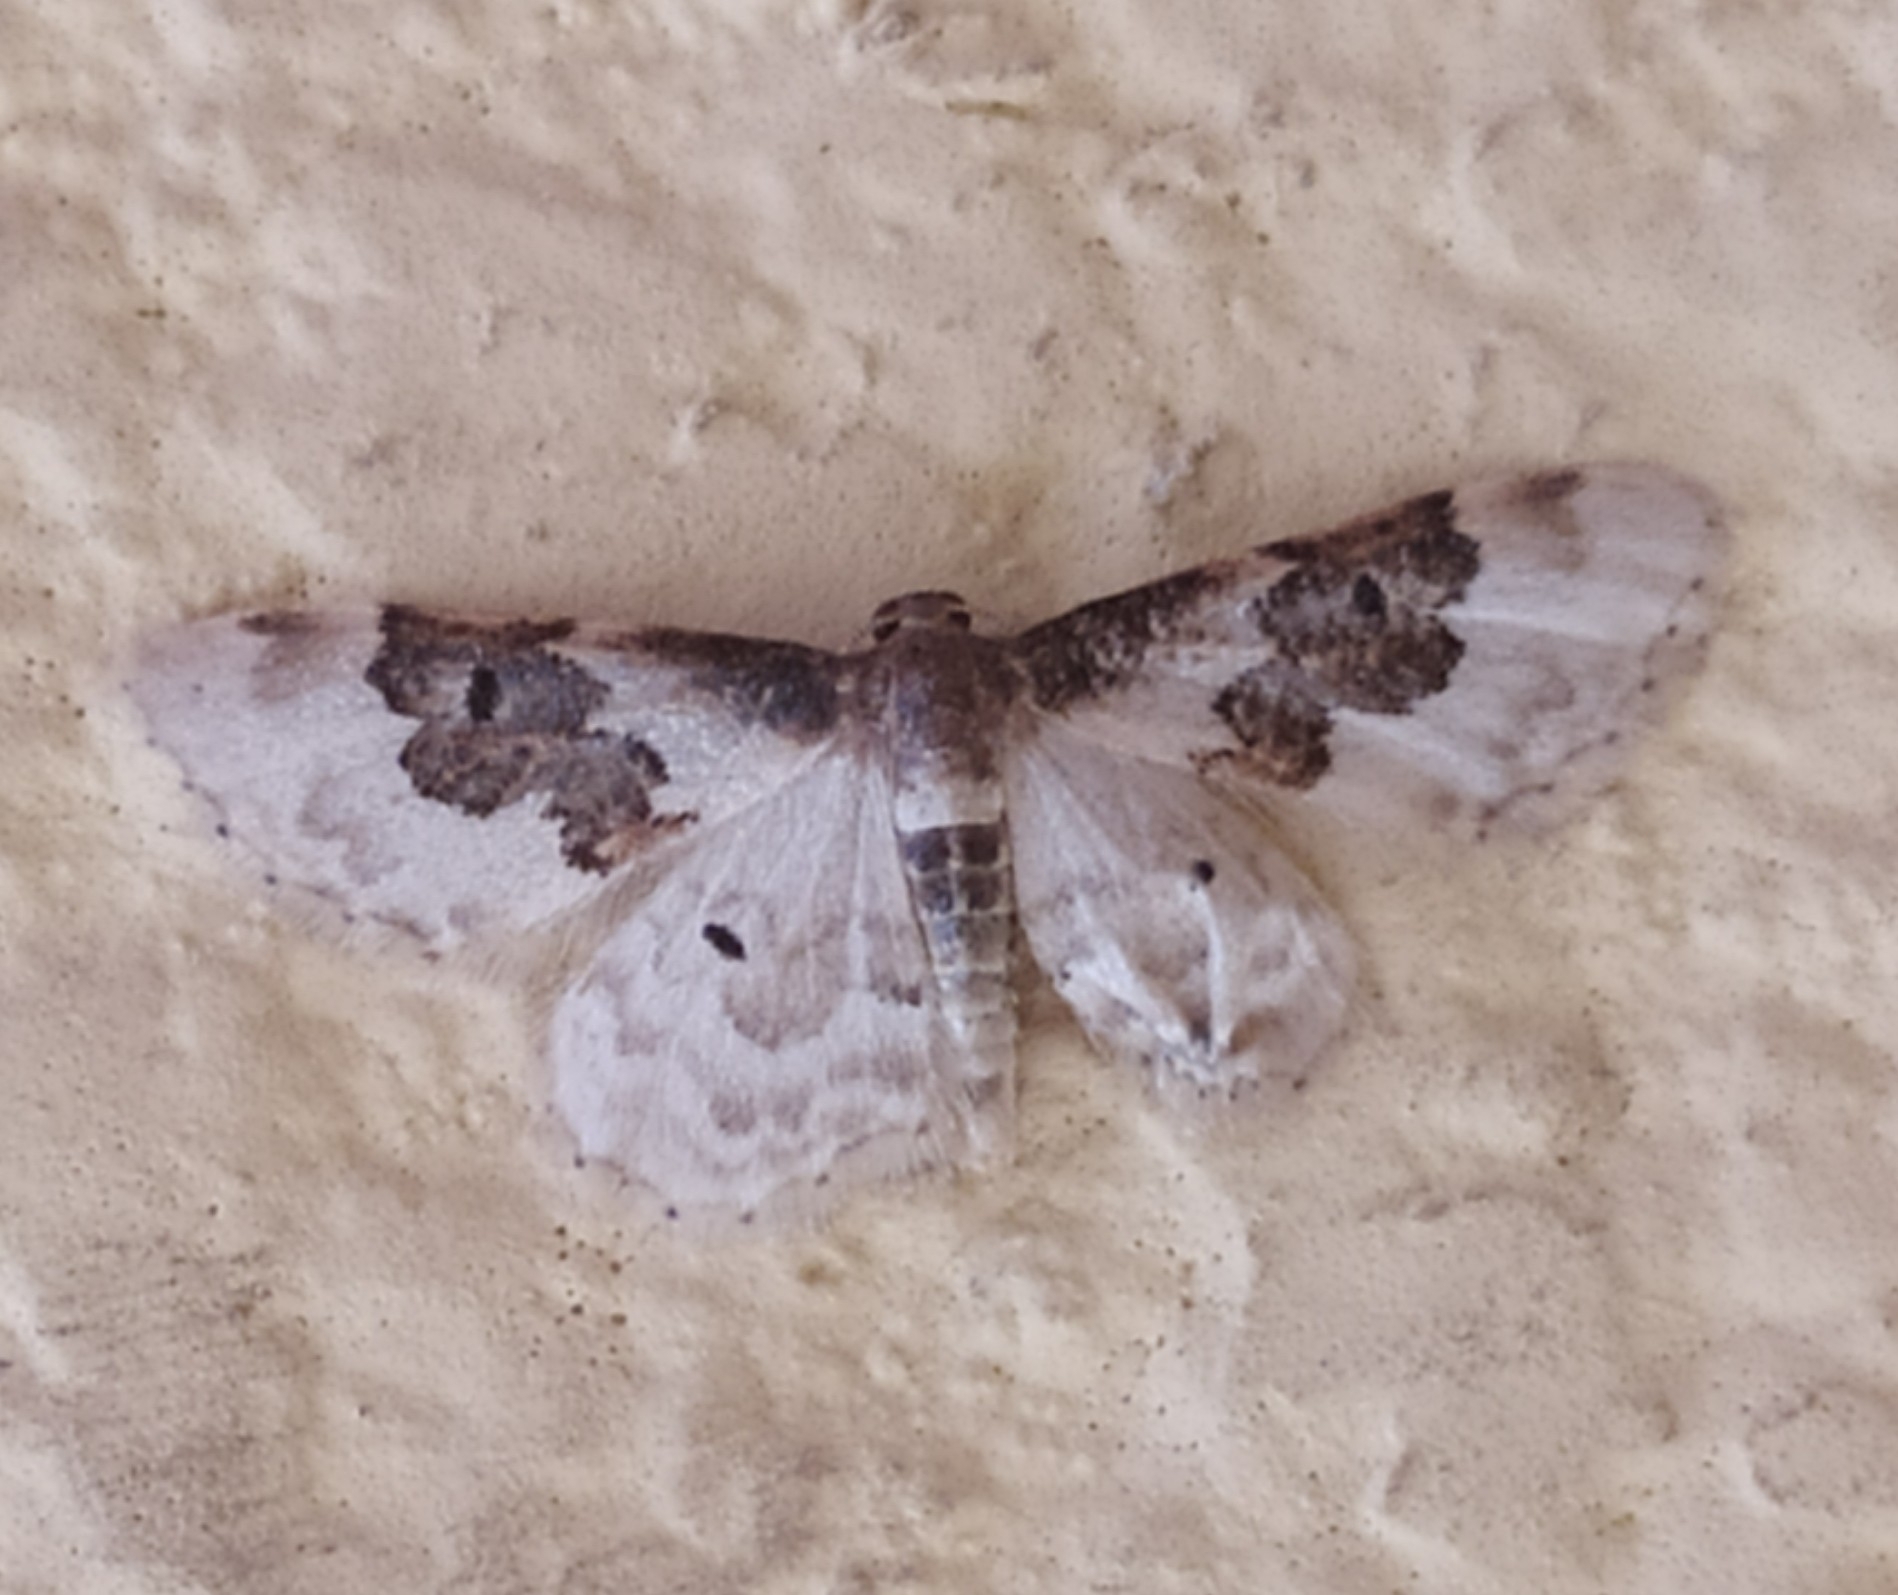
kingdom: Animalia
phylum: Arthropoda
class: Insecta
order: Lepidoptera
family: Geometridae
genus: Idaea
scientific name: Idaea rusticata
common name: Least carpet
